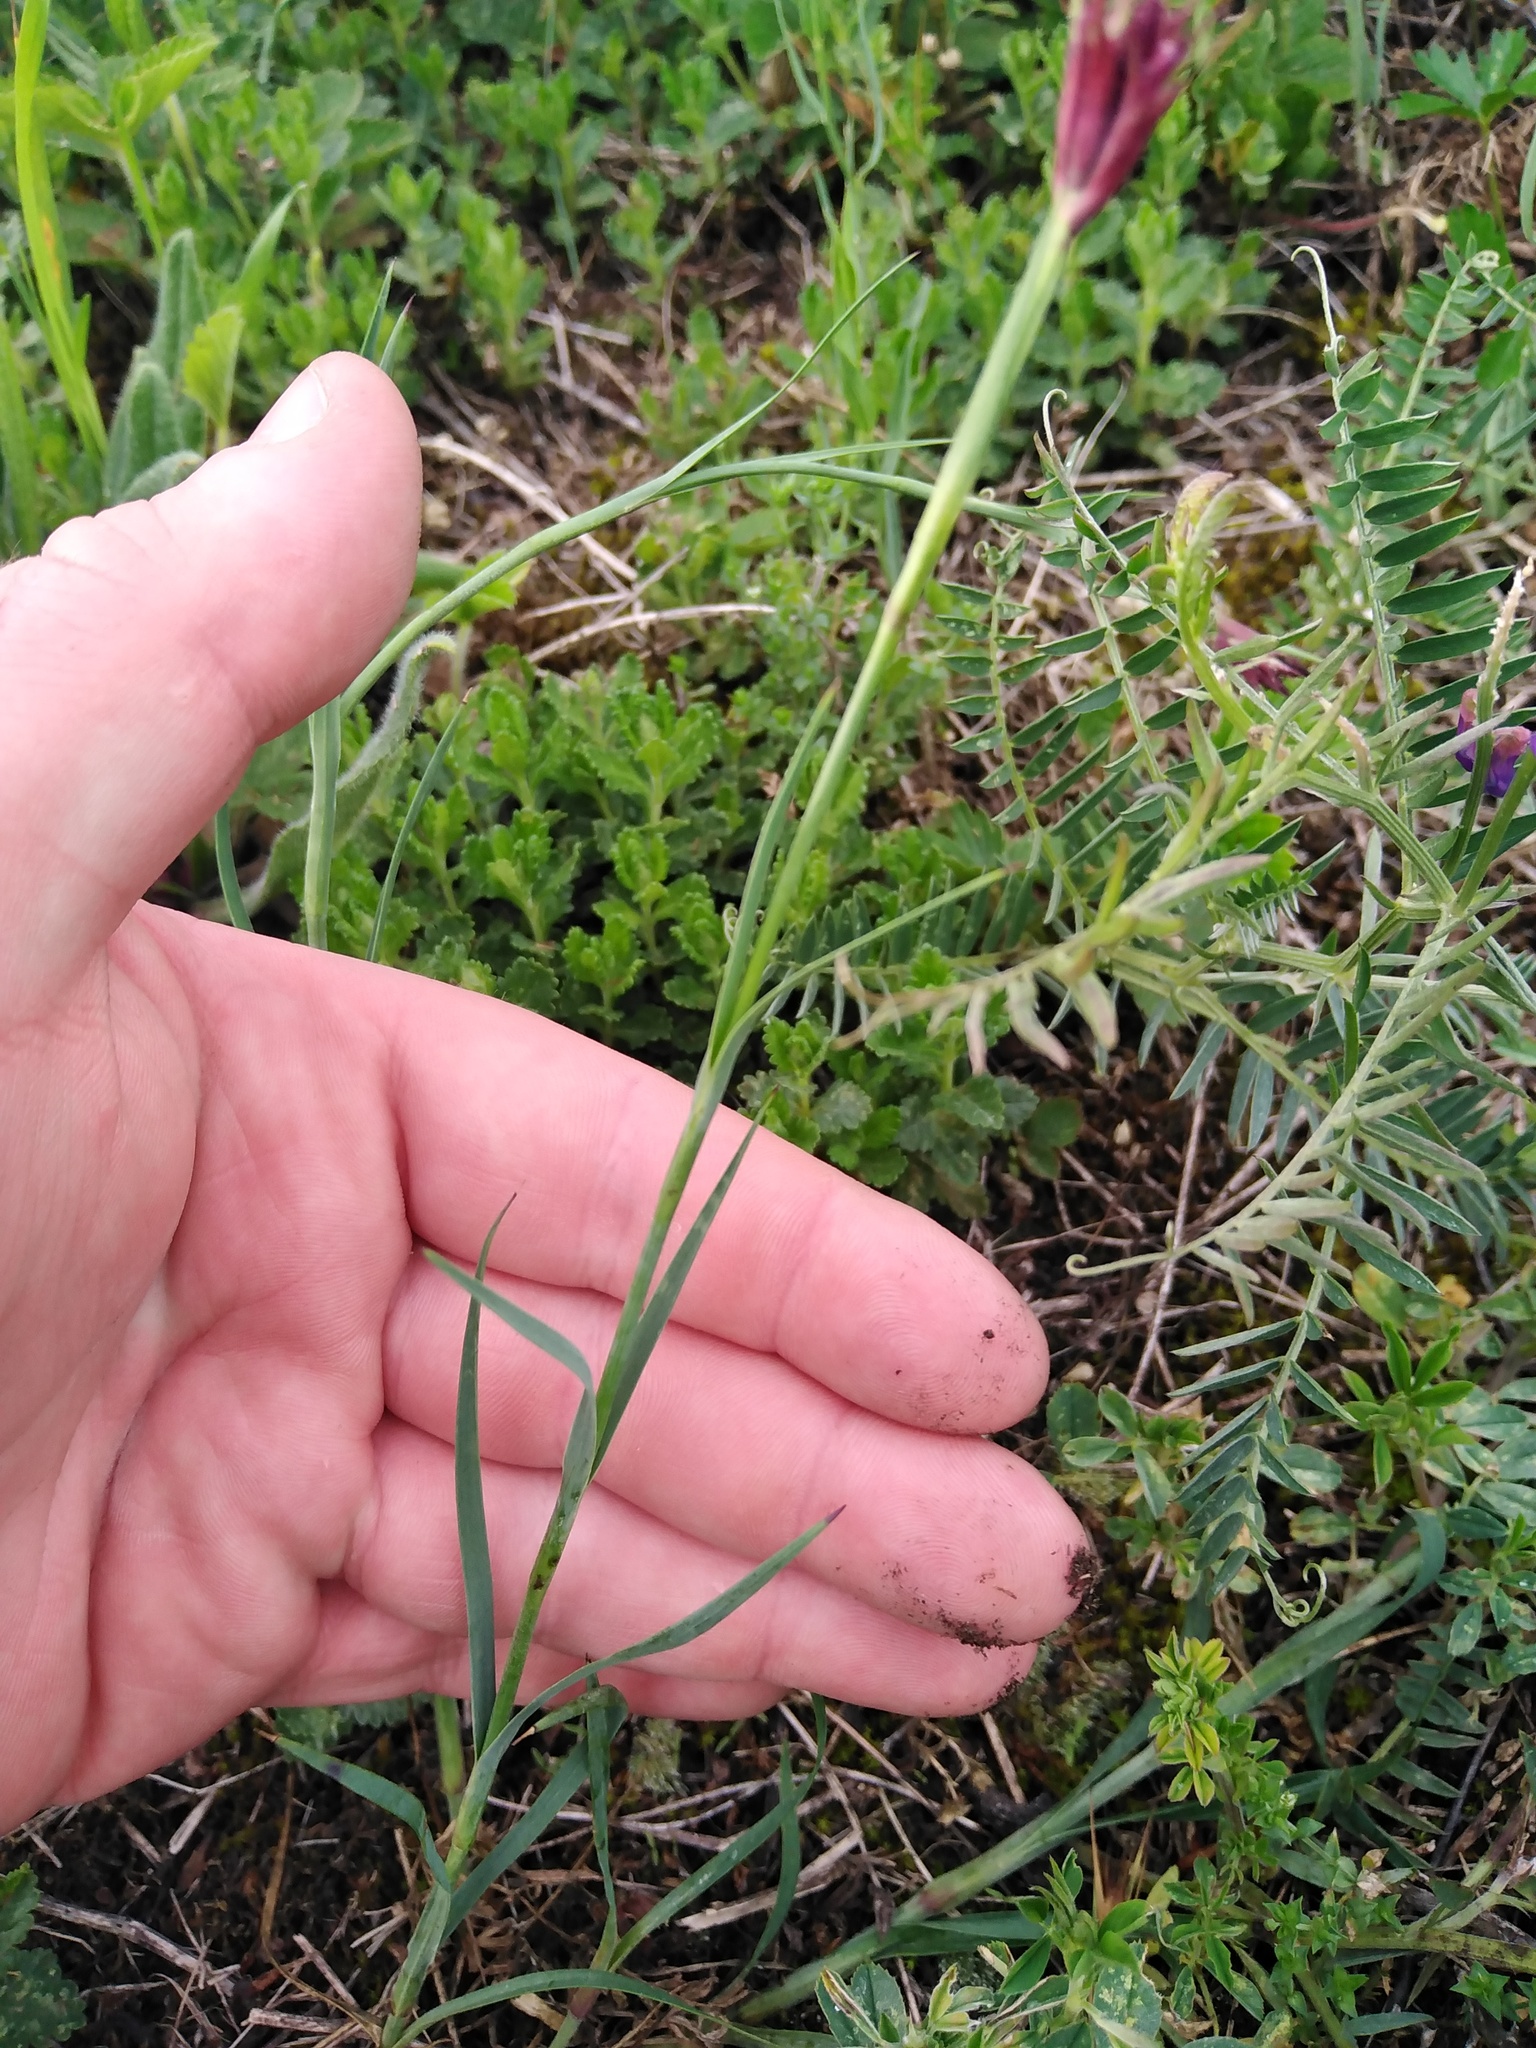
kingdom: Plantae
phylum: Tracheophyta
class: Magnoliopsida
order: Caryophyllales
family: Caryophyllaceae
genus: Dianthus
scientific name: Dianthus carthusianorum
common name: Carthusian pink
